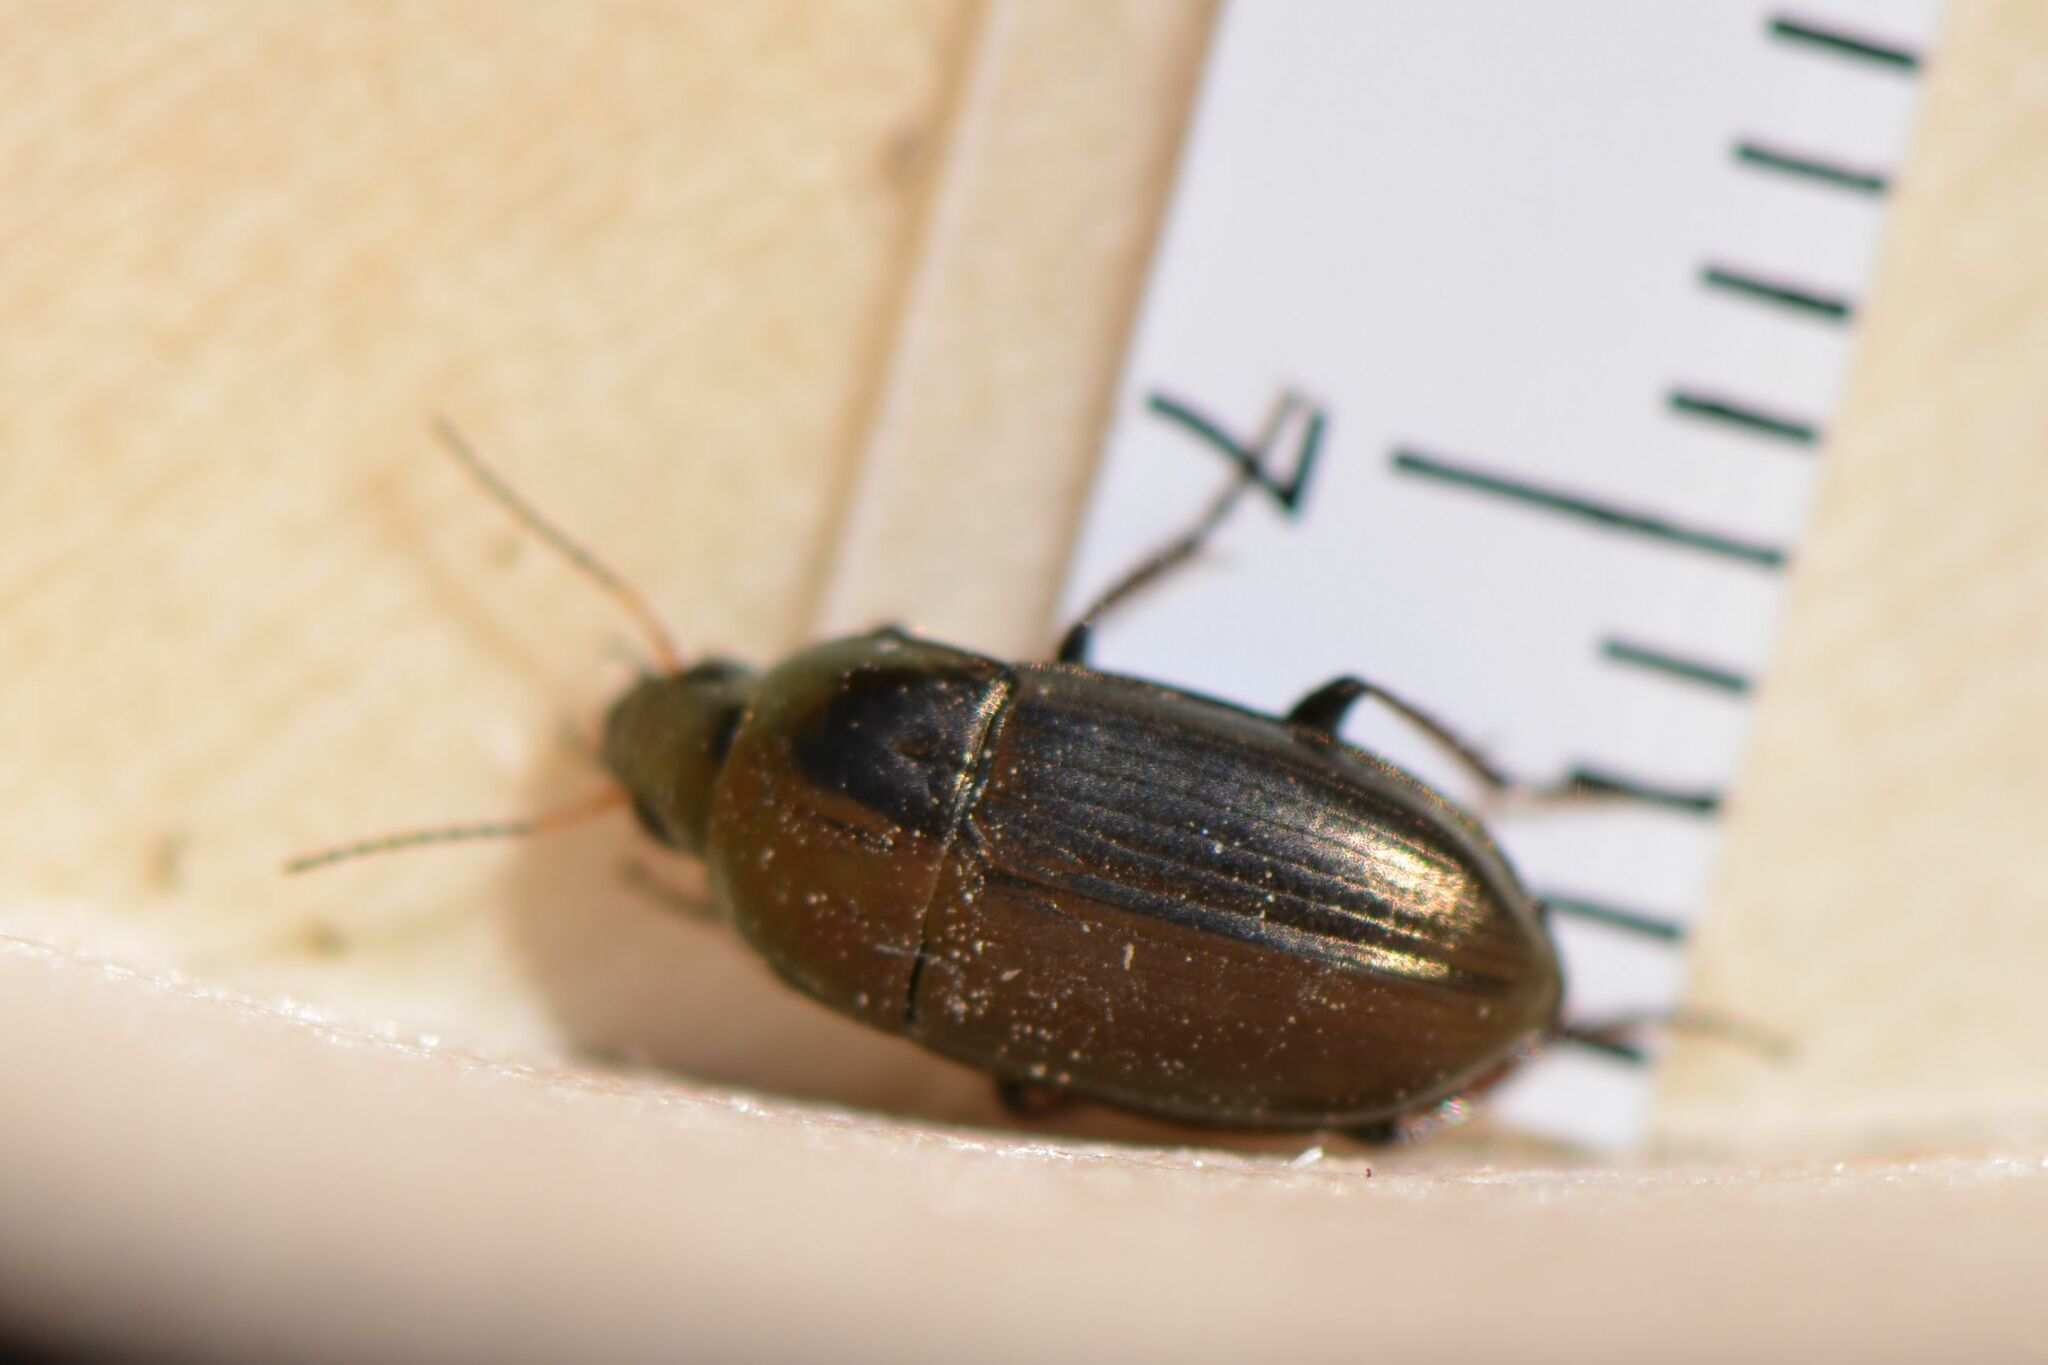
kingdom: Animalia
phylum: Arthropoda
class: Insecta
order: Coleoptera
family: Carabidae
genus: Amara
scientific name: Amara aenea
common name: Common sun beetle
